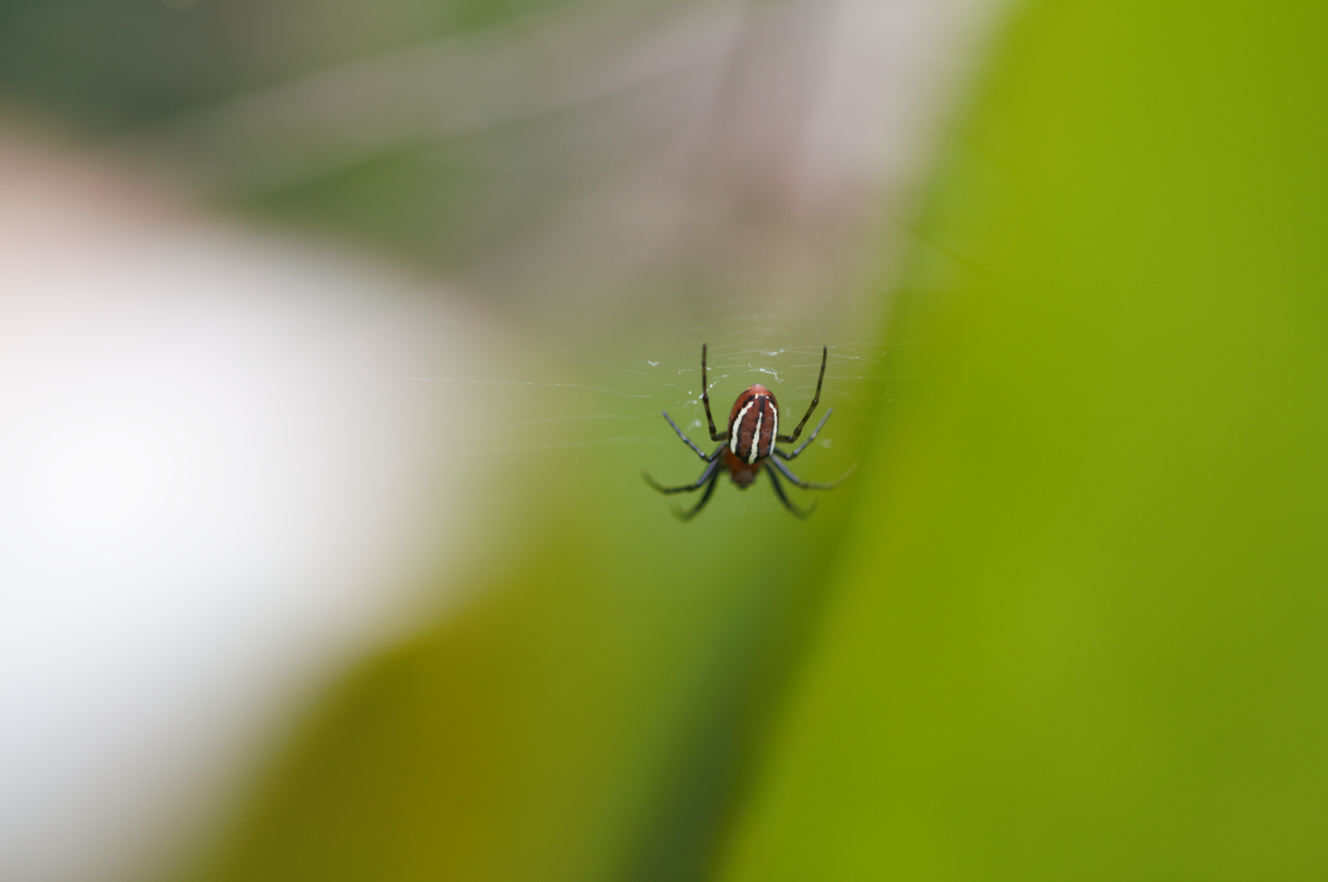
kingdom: Animalia
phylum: Arthropoda
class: Arachnida
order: Araneae
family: Araneidae
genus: Alpaida
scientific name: Alpaida leucogramma
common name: Orb weavers
